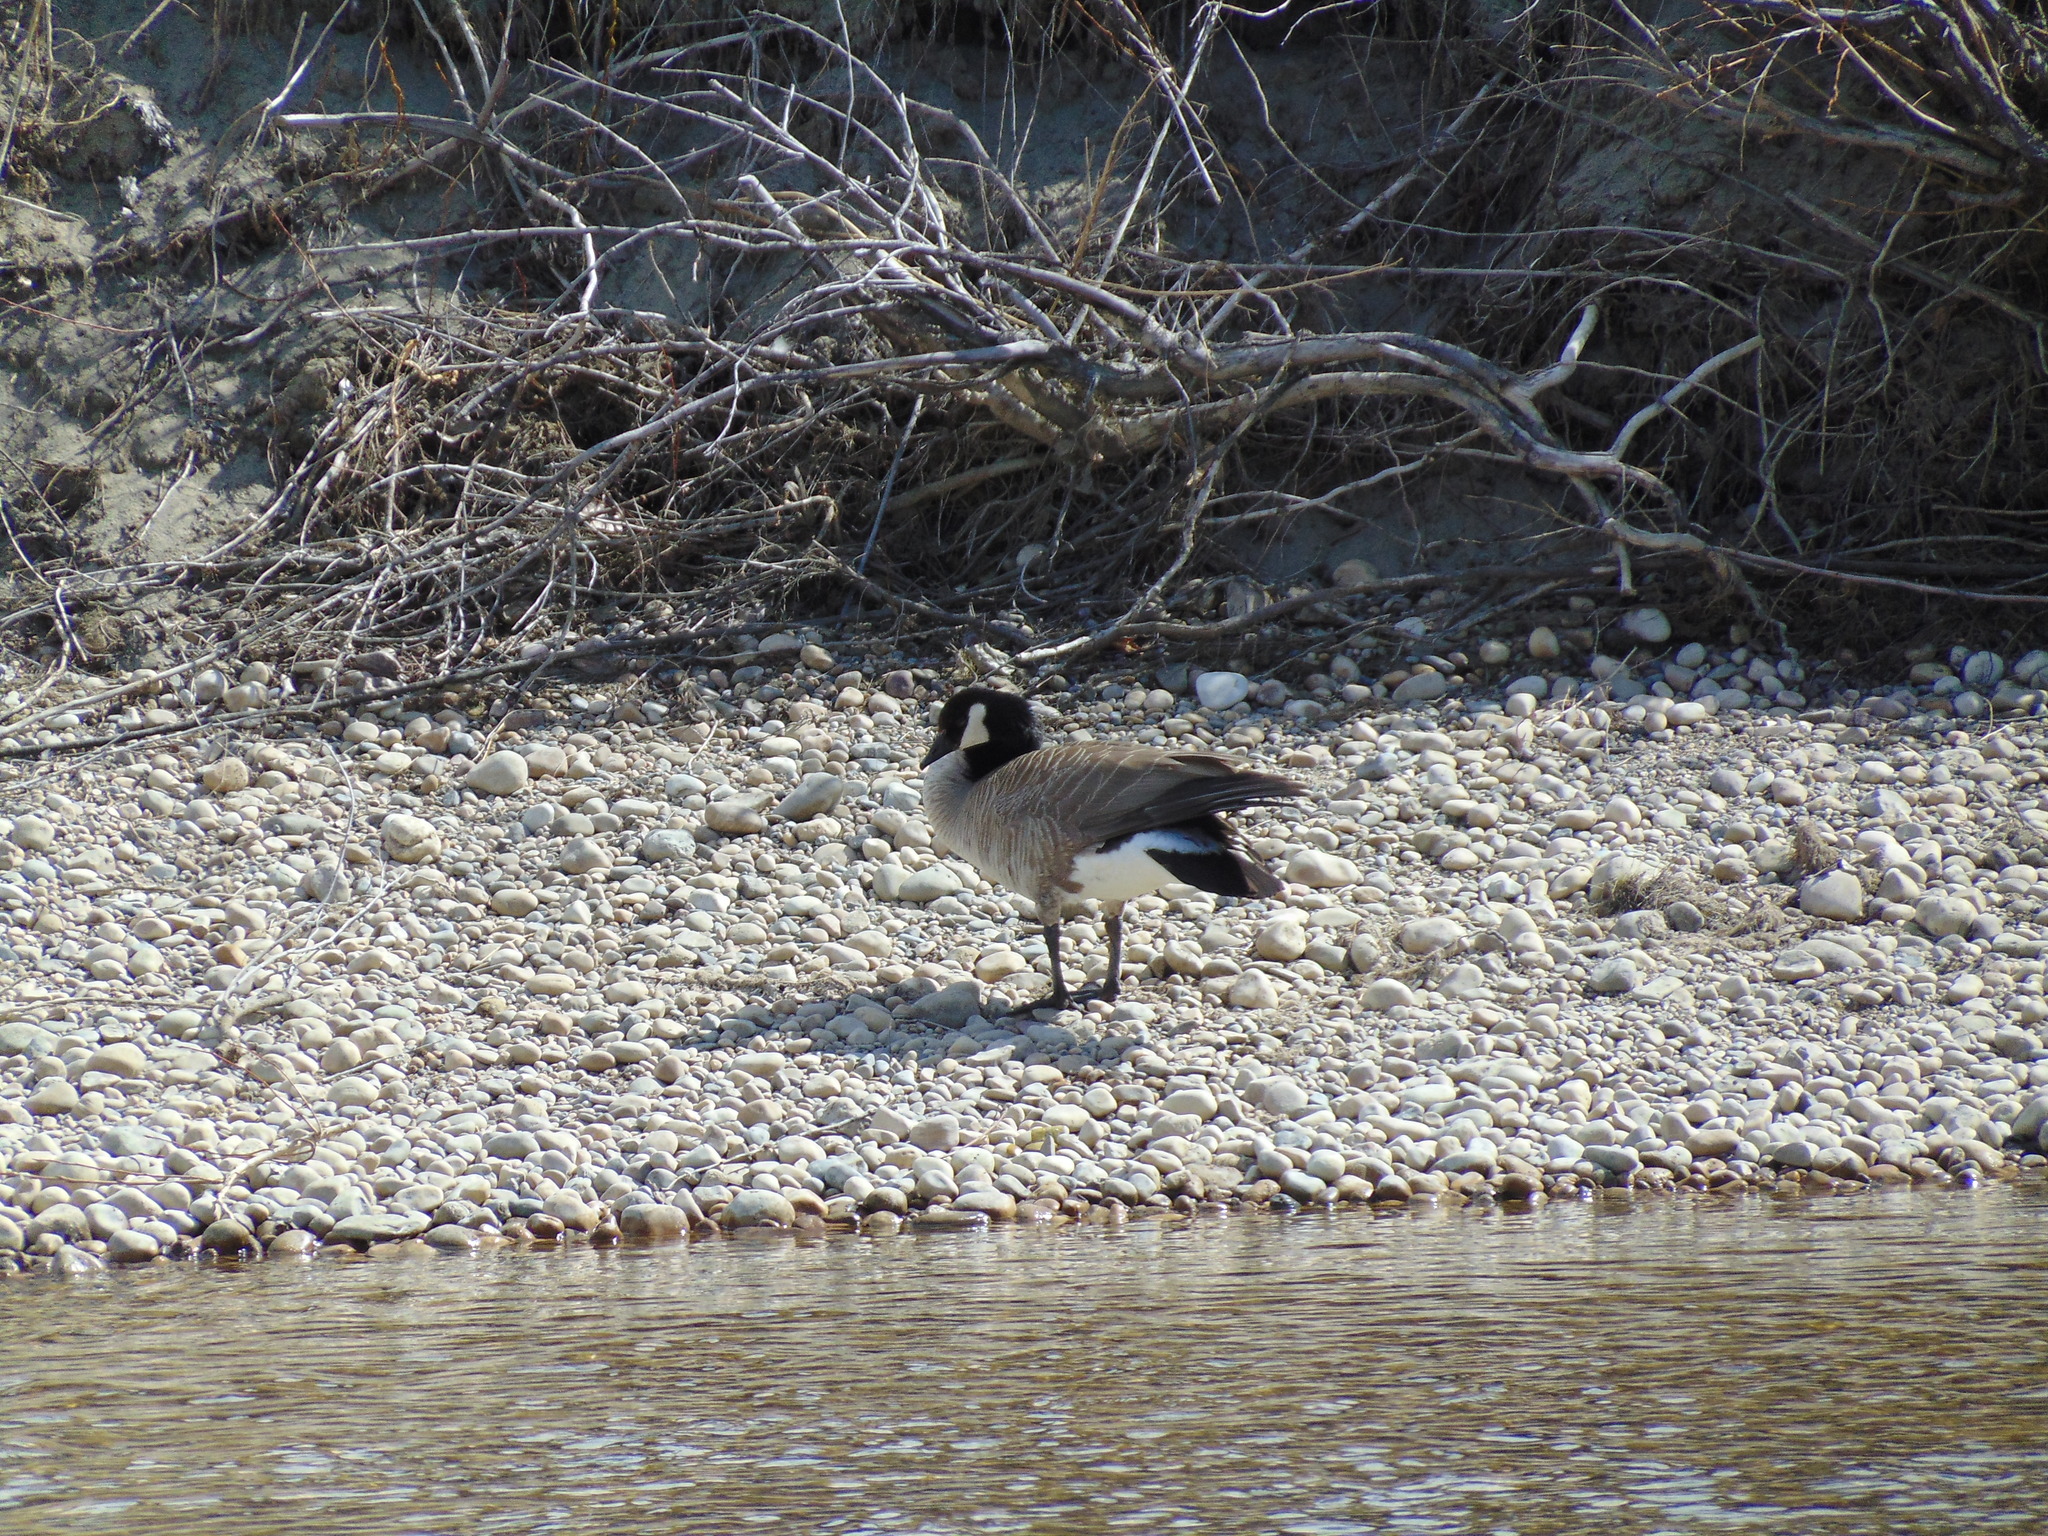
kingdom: Animalia
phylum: Chordata
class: Aves
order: Anseriformes
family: Anatidae
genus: Branta
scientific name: Branta canadensis
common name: Canada goose
